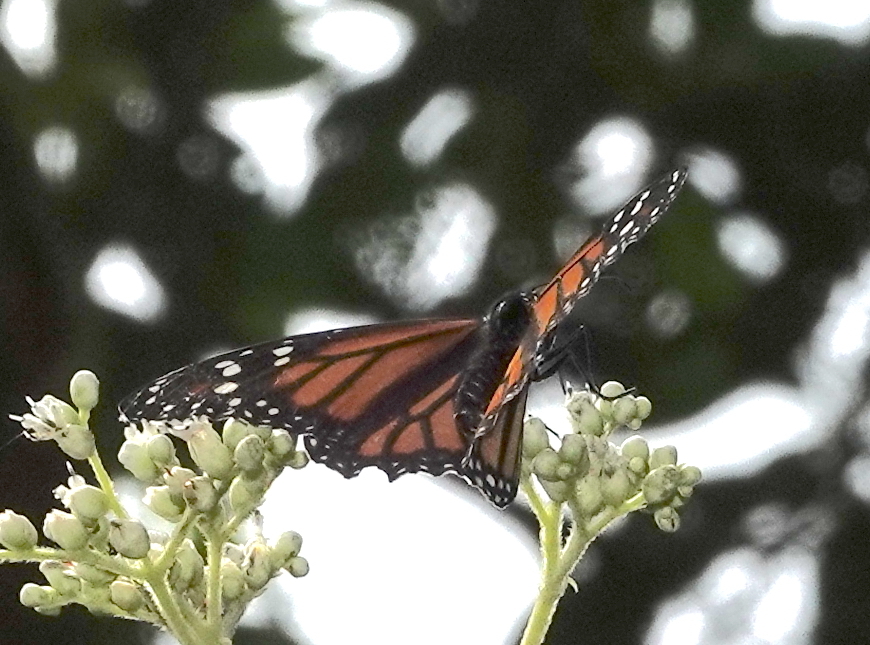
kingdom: Animalia
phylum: Arthropoda
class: Insecta
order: Lepidoptera
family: Nymphalidae
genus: Danaus
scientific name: Danaus plexippus
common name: Monarch
